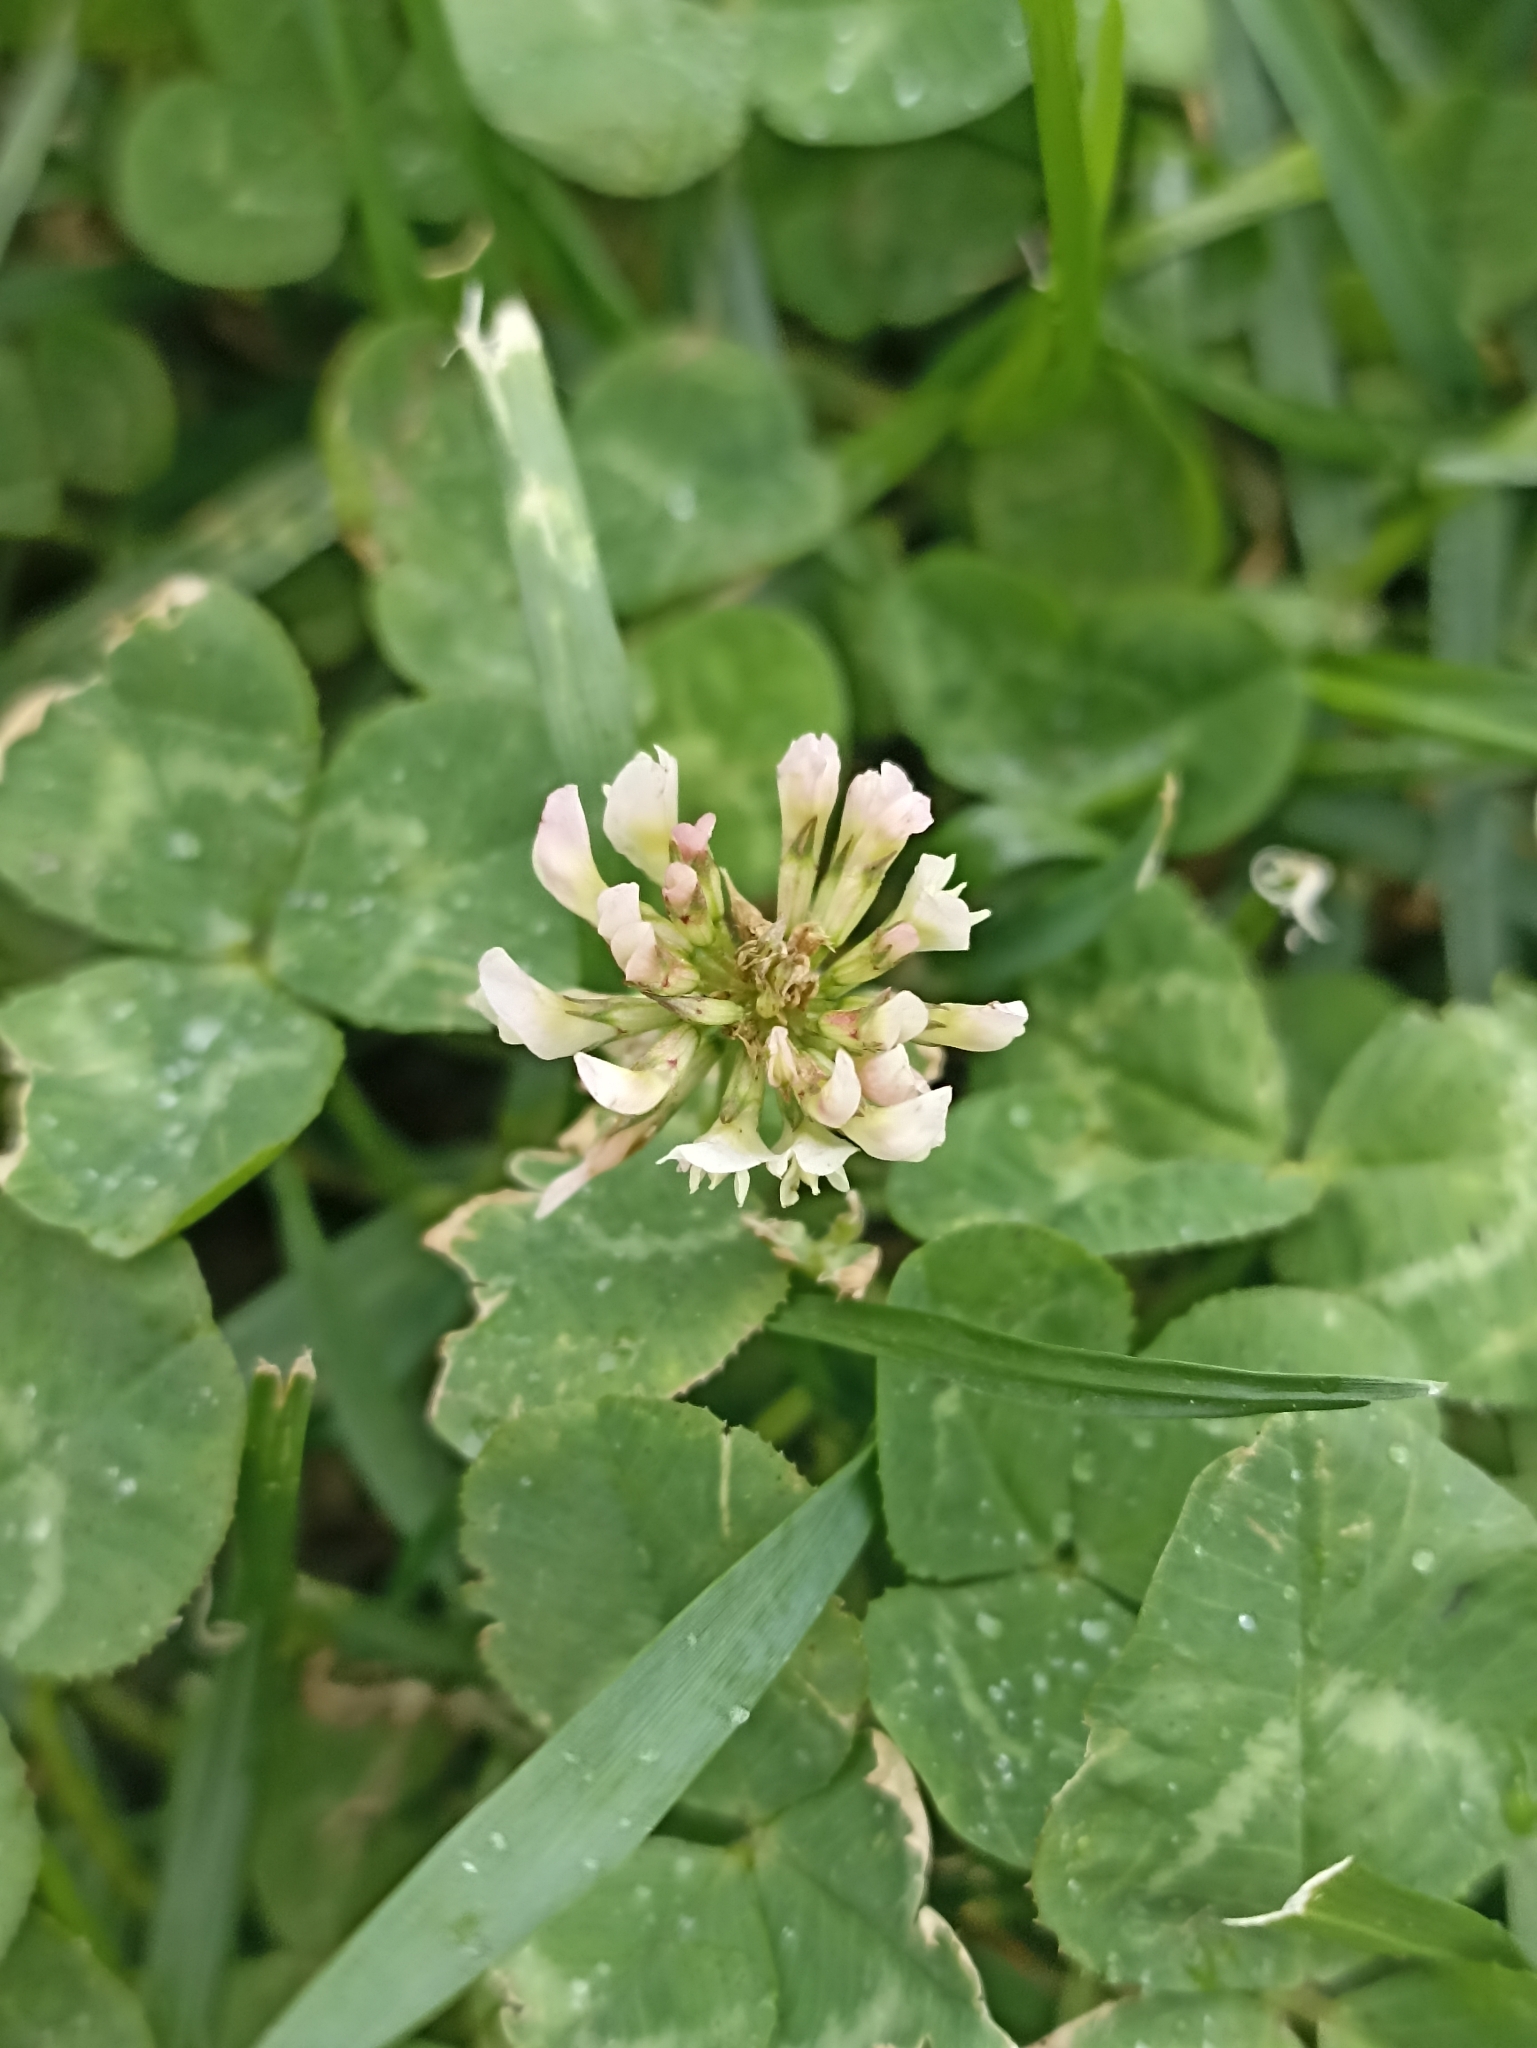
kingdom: Plantae
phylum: Tracheophyta
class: Magnoliopsida
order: Fabales
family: Fabaceae
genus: Trifolium
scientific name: Trifolium repens
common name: White clover
